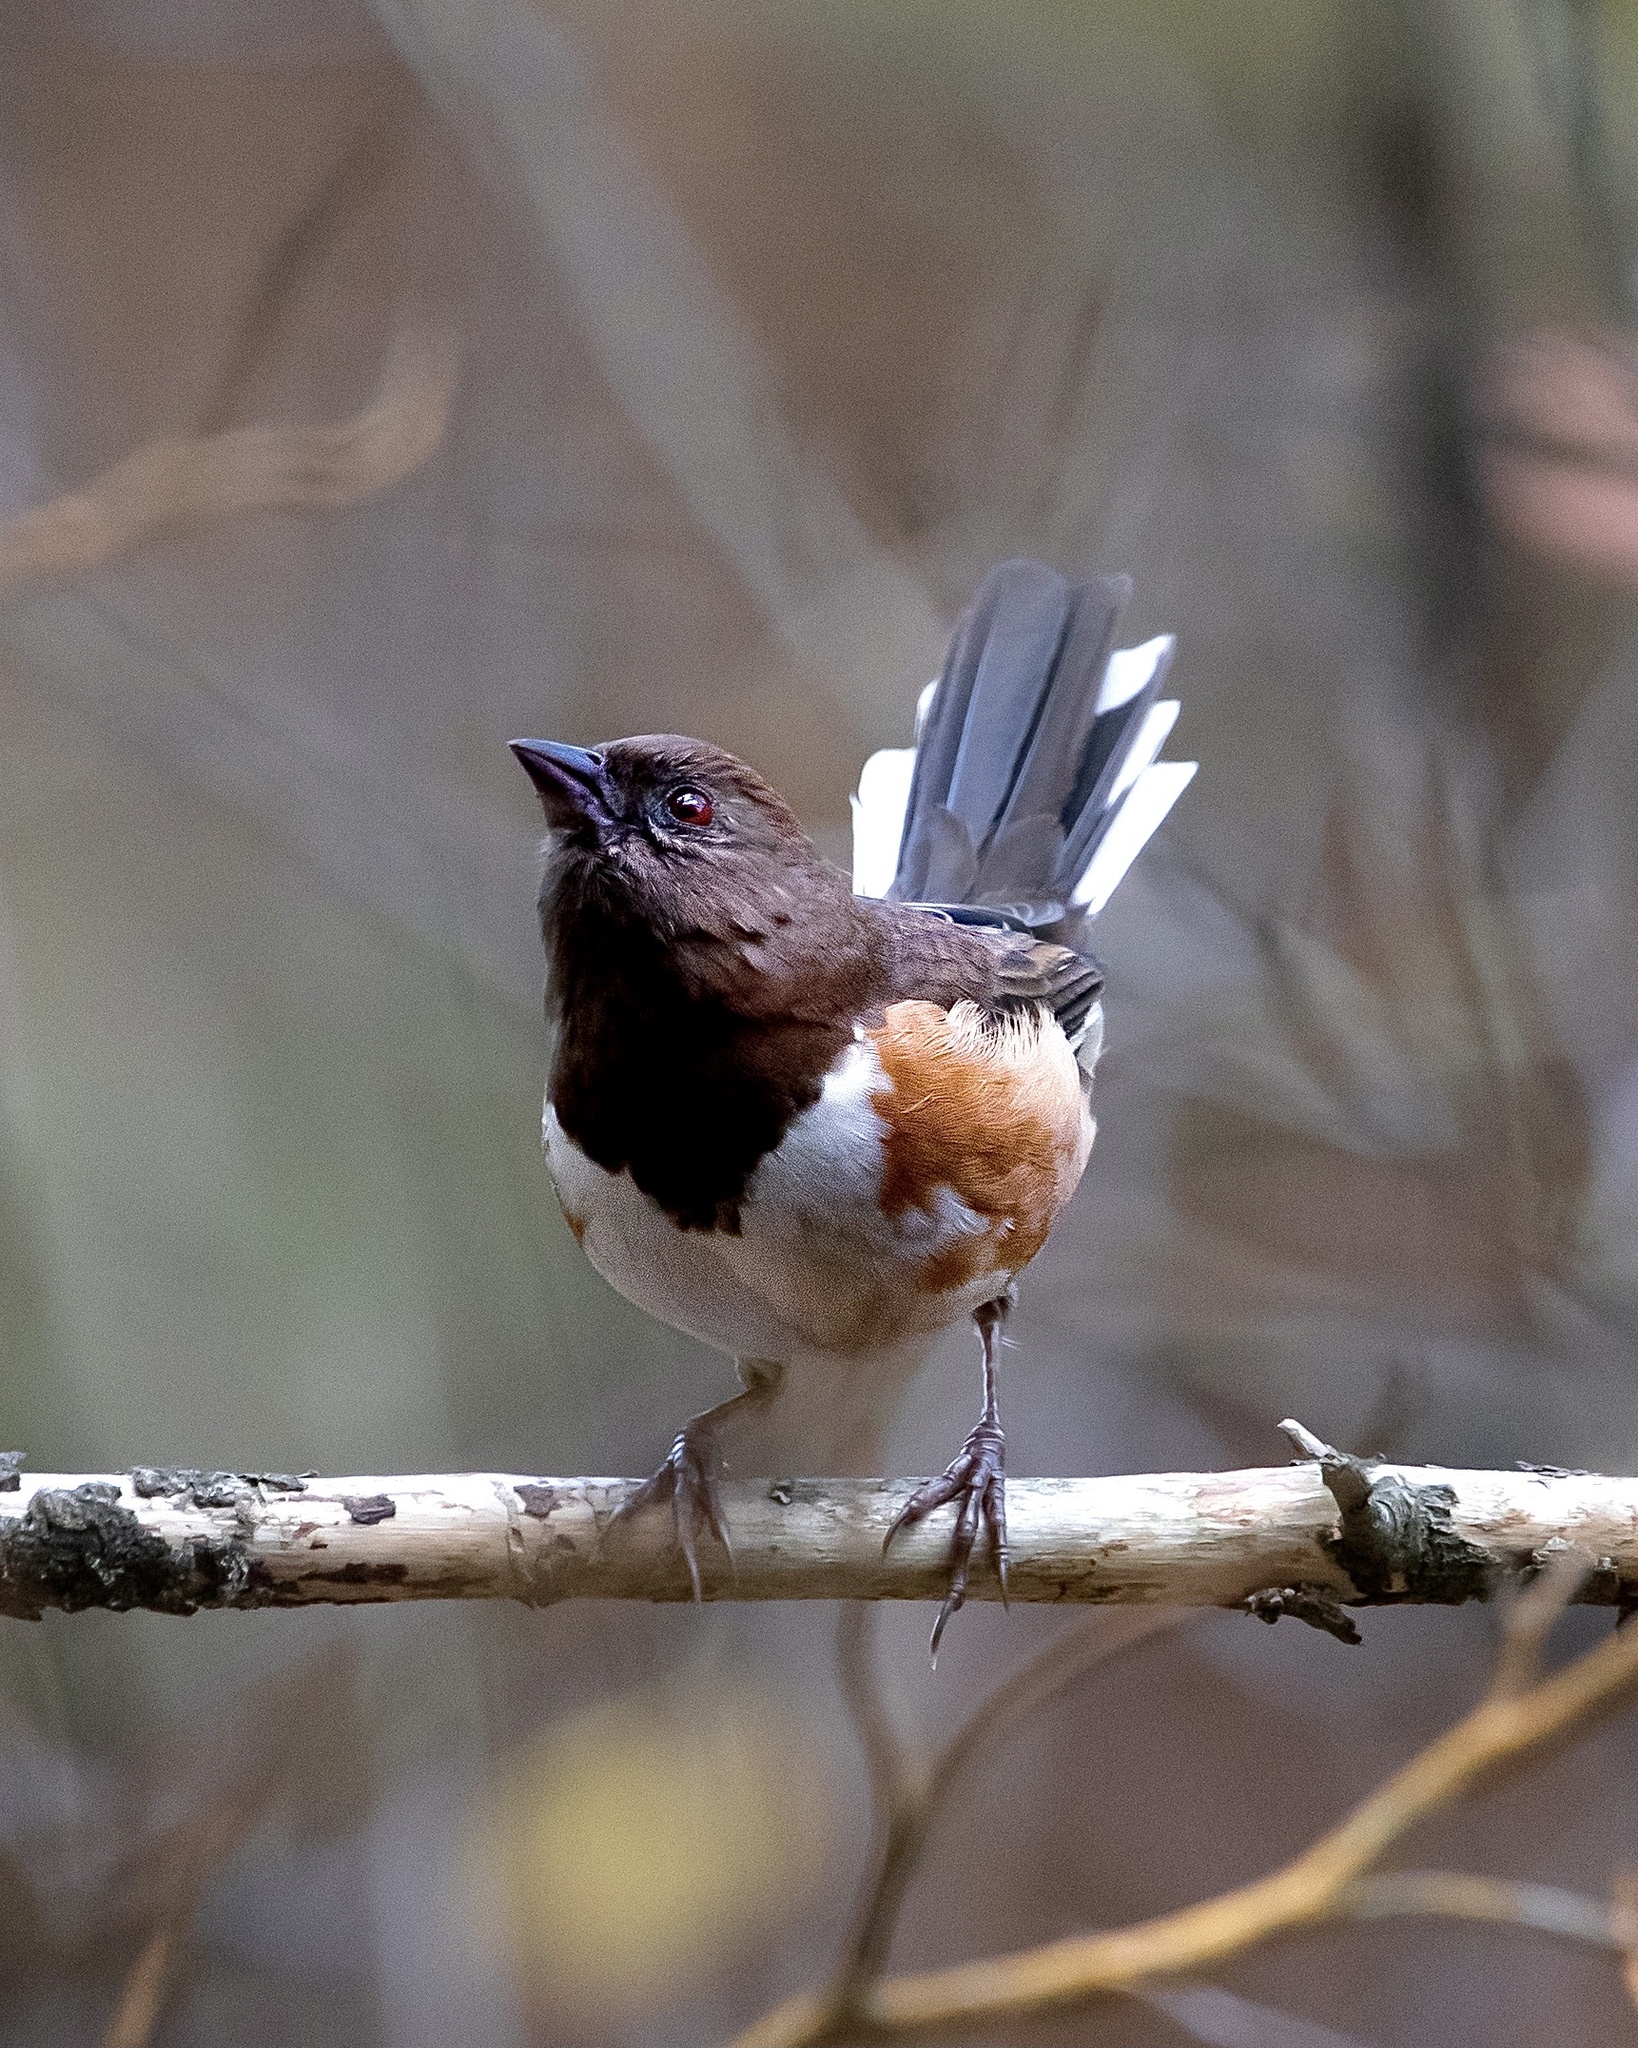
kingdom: Animalia
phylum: Chordata
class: Aves
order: Passeriformes
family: Passerellidae
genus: Pipilo
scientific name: Pipilo erythrophthalmus
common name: Eastern towhee
